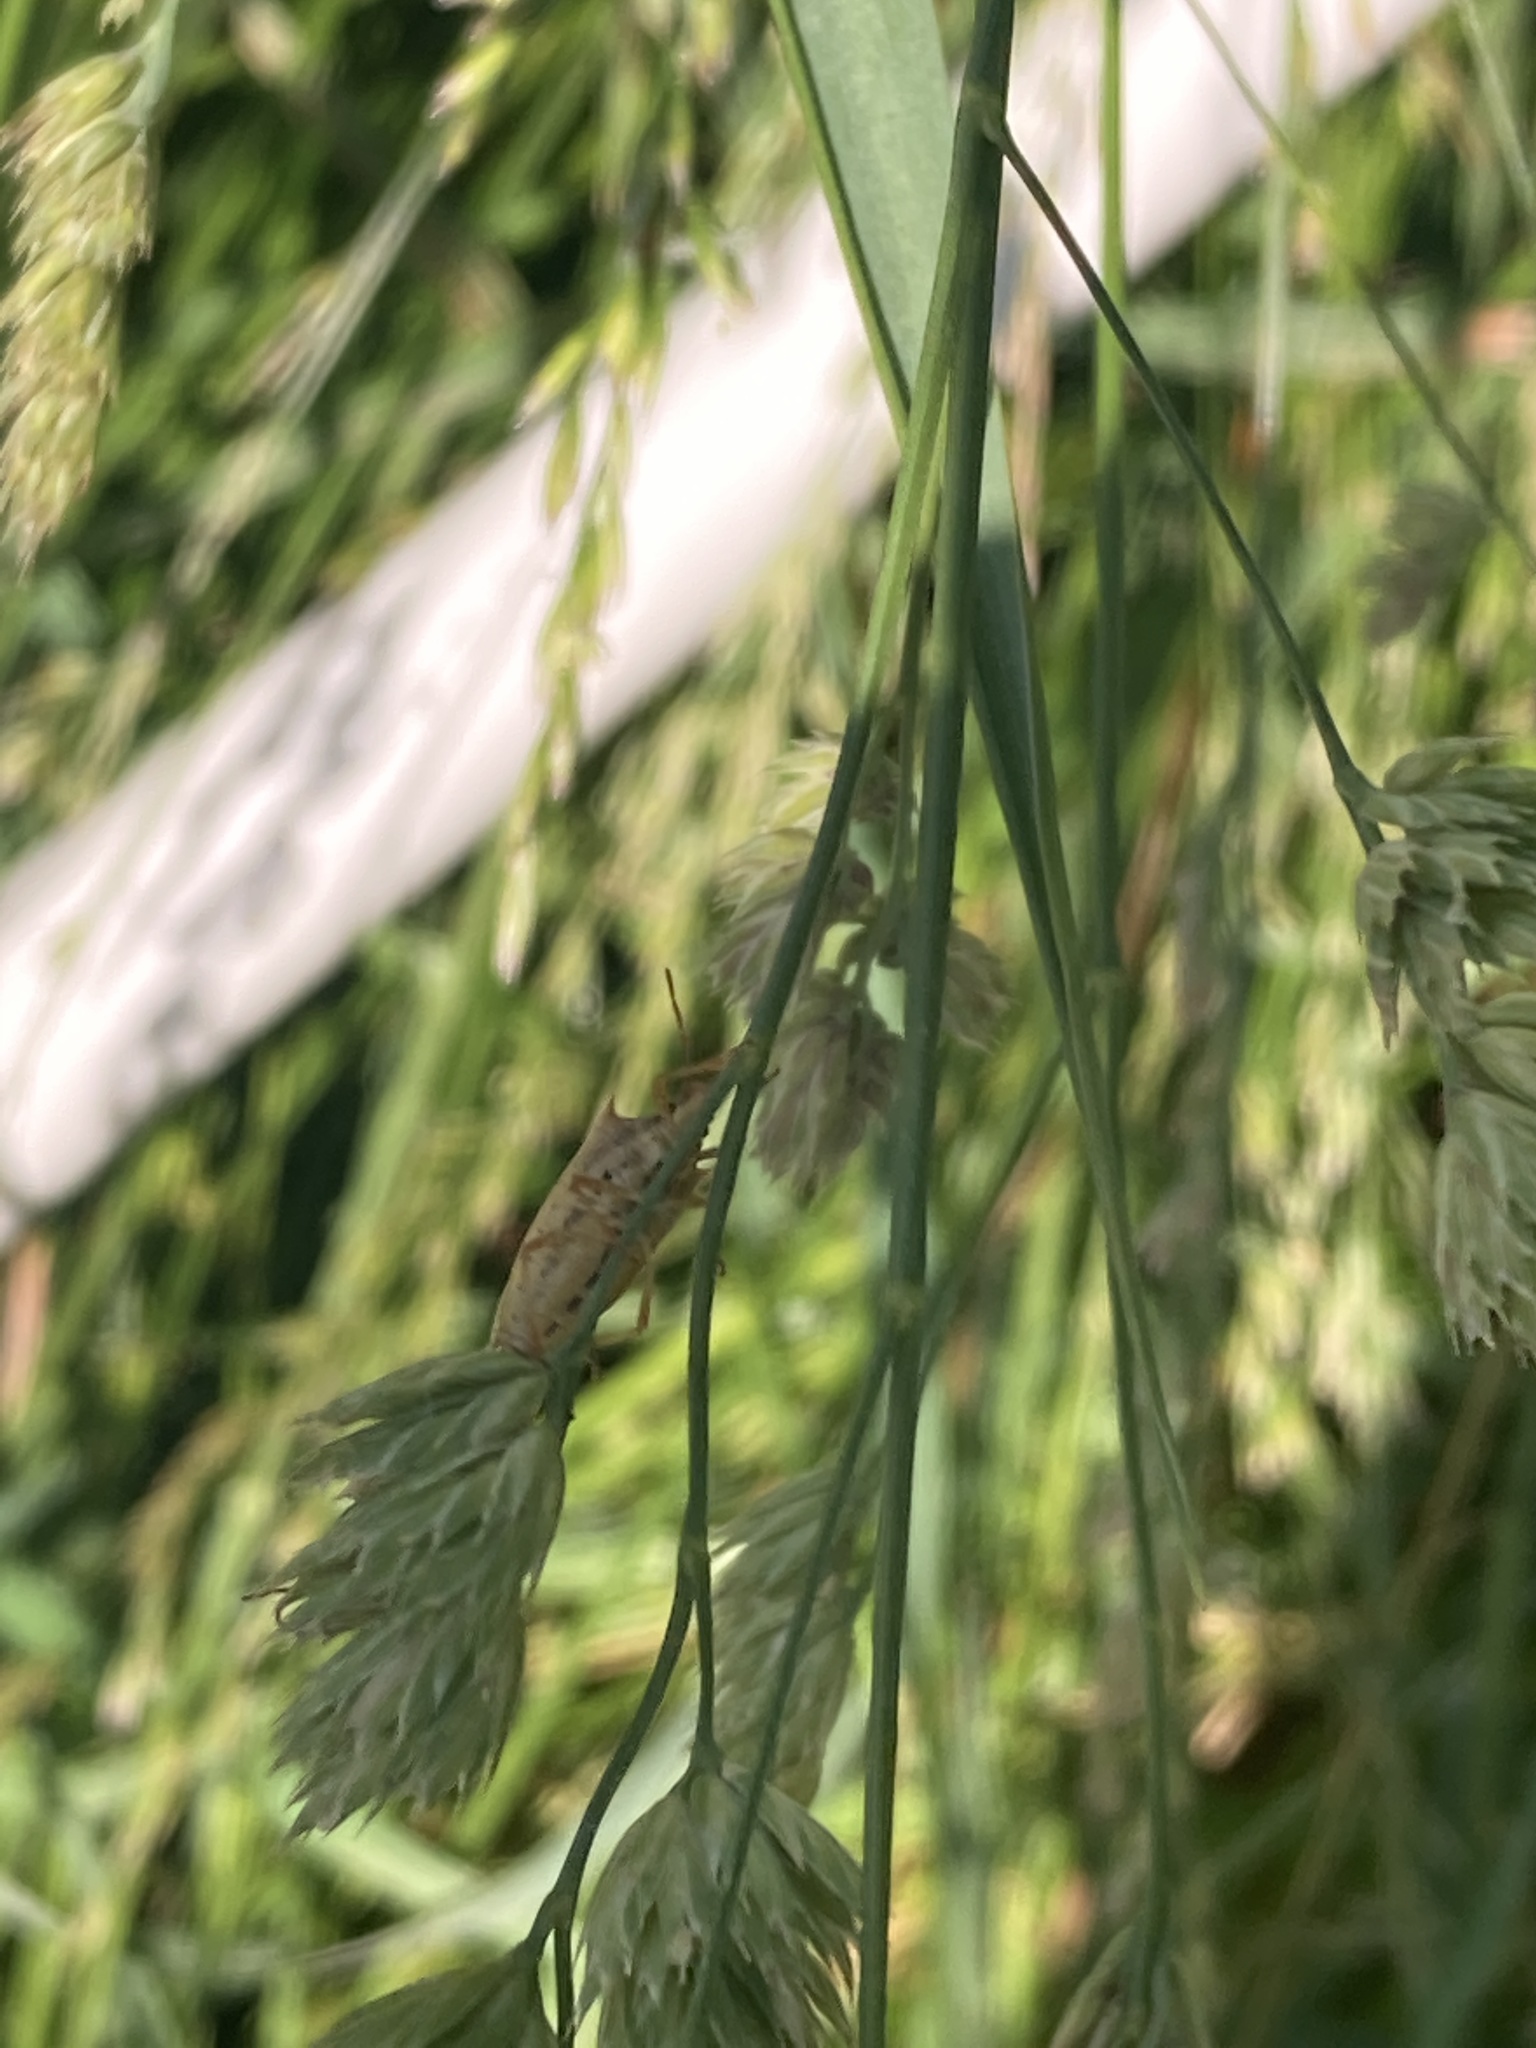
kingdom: Animalia
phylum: Arthropoda
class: Insecta
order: Hemiptera
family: Pentatomidae
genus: Oebalus
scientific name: Oebalus pugnax
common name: Rice stink bug
